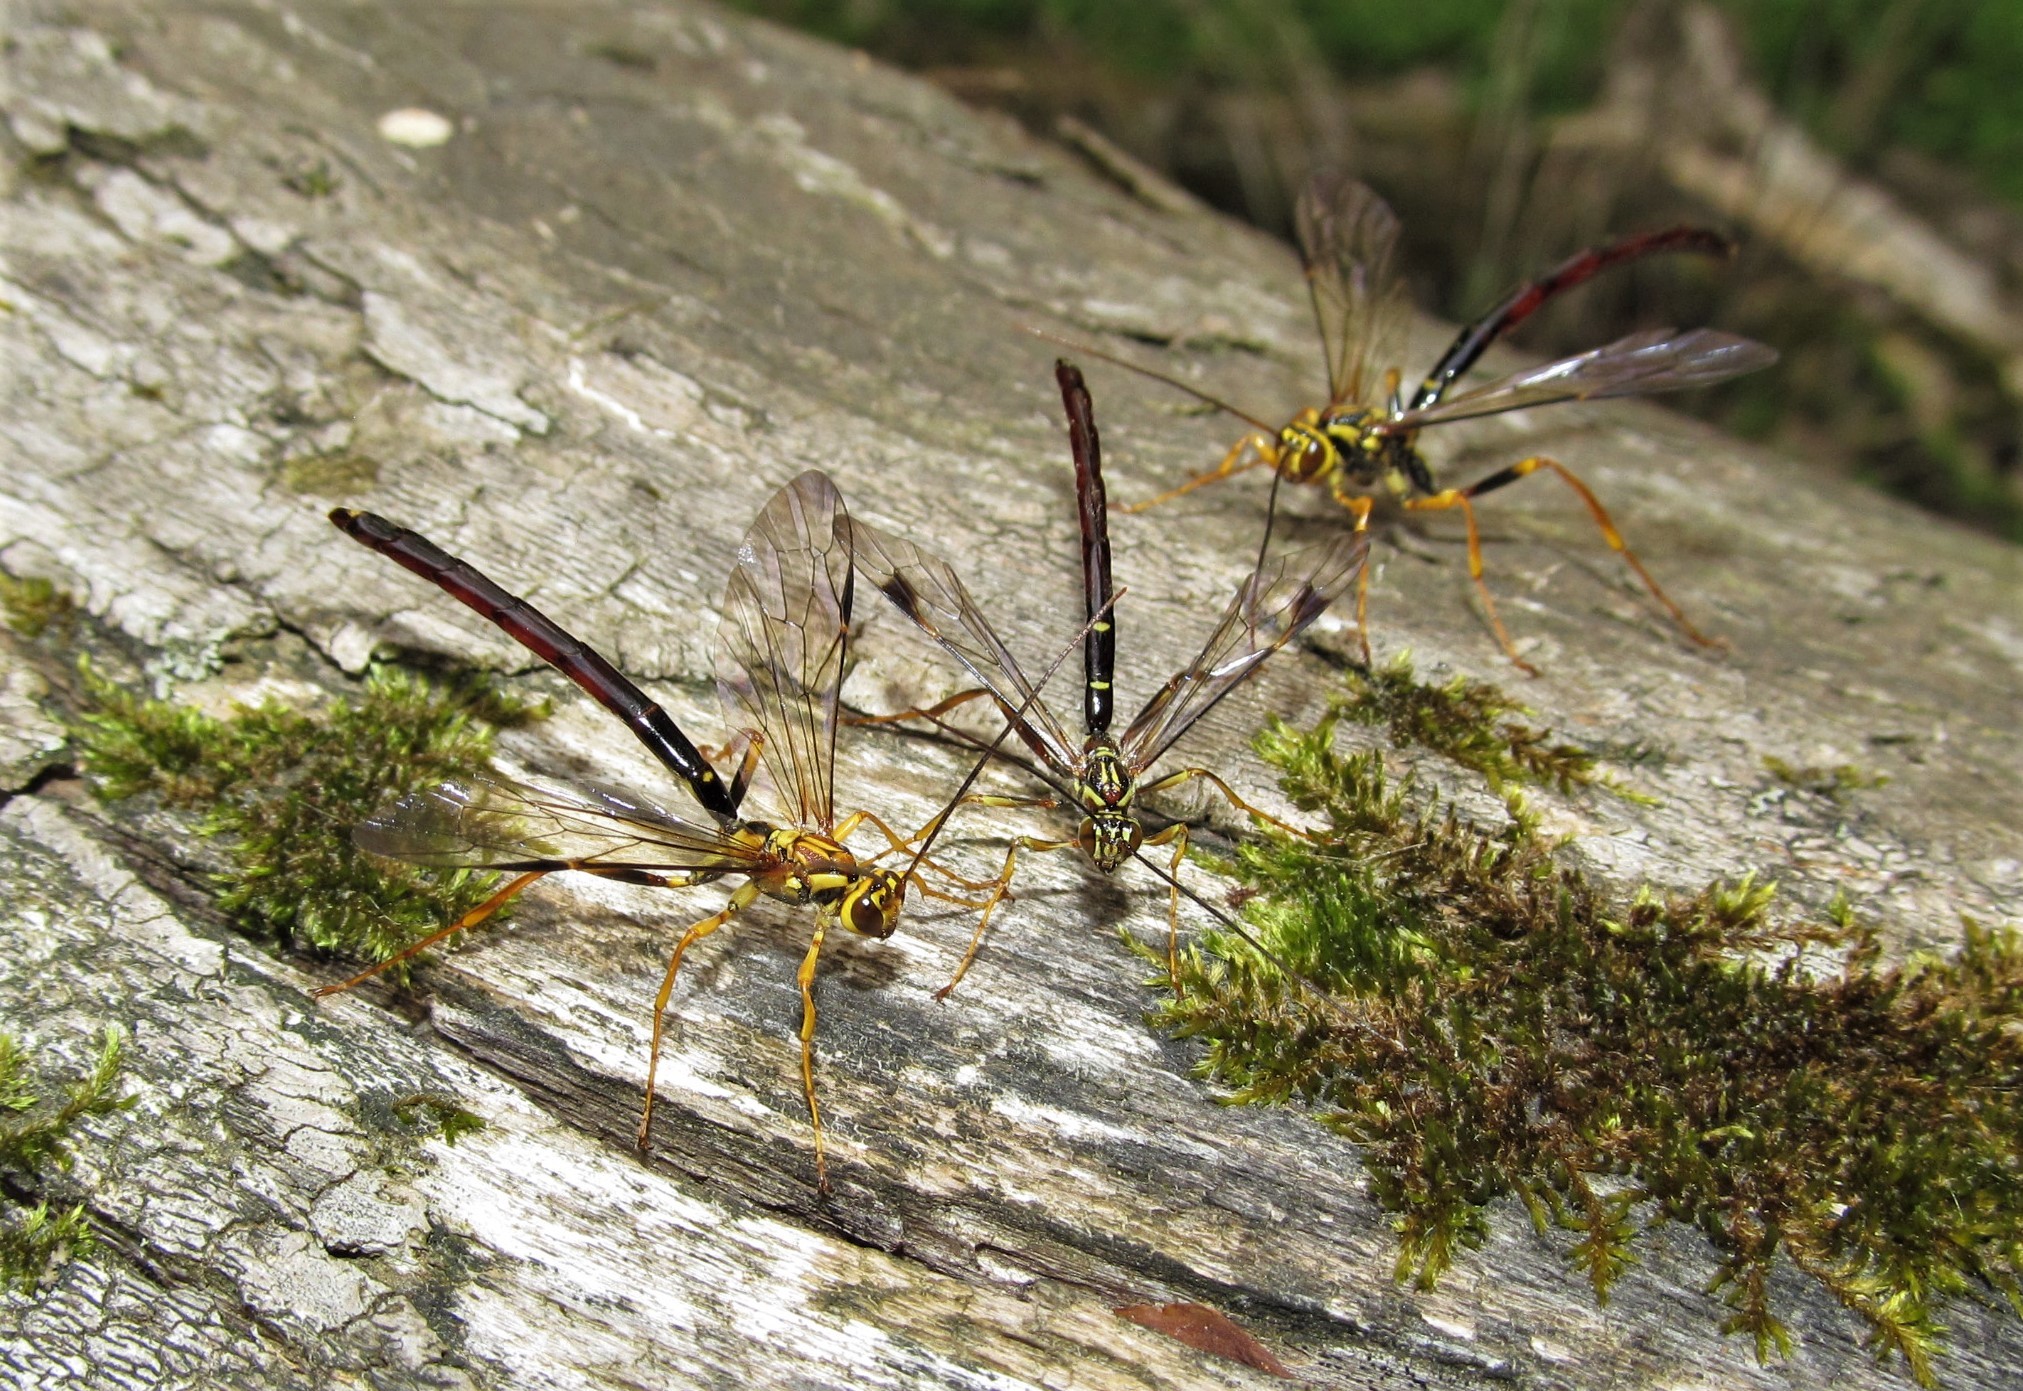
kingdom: Animalia
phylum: Arthropoda
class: Insecta
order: Hymenoptera
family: Ichneumonidae
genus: Megarhyssa
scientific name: Megarhyssa atrata
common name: Black giant ichneumonid wasp
